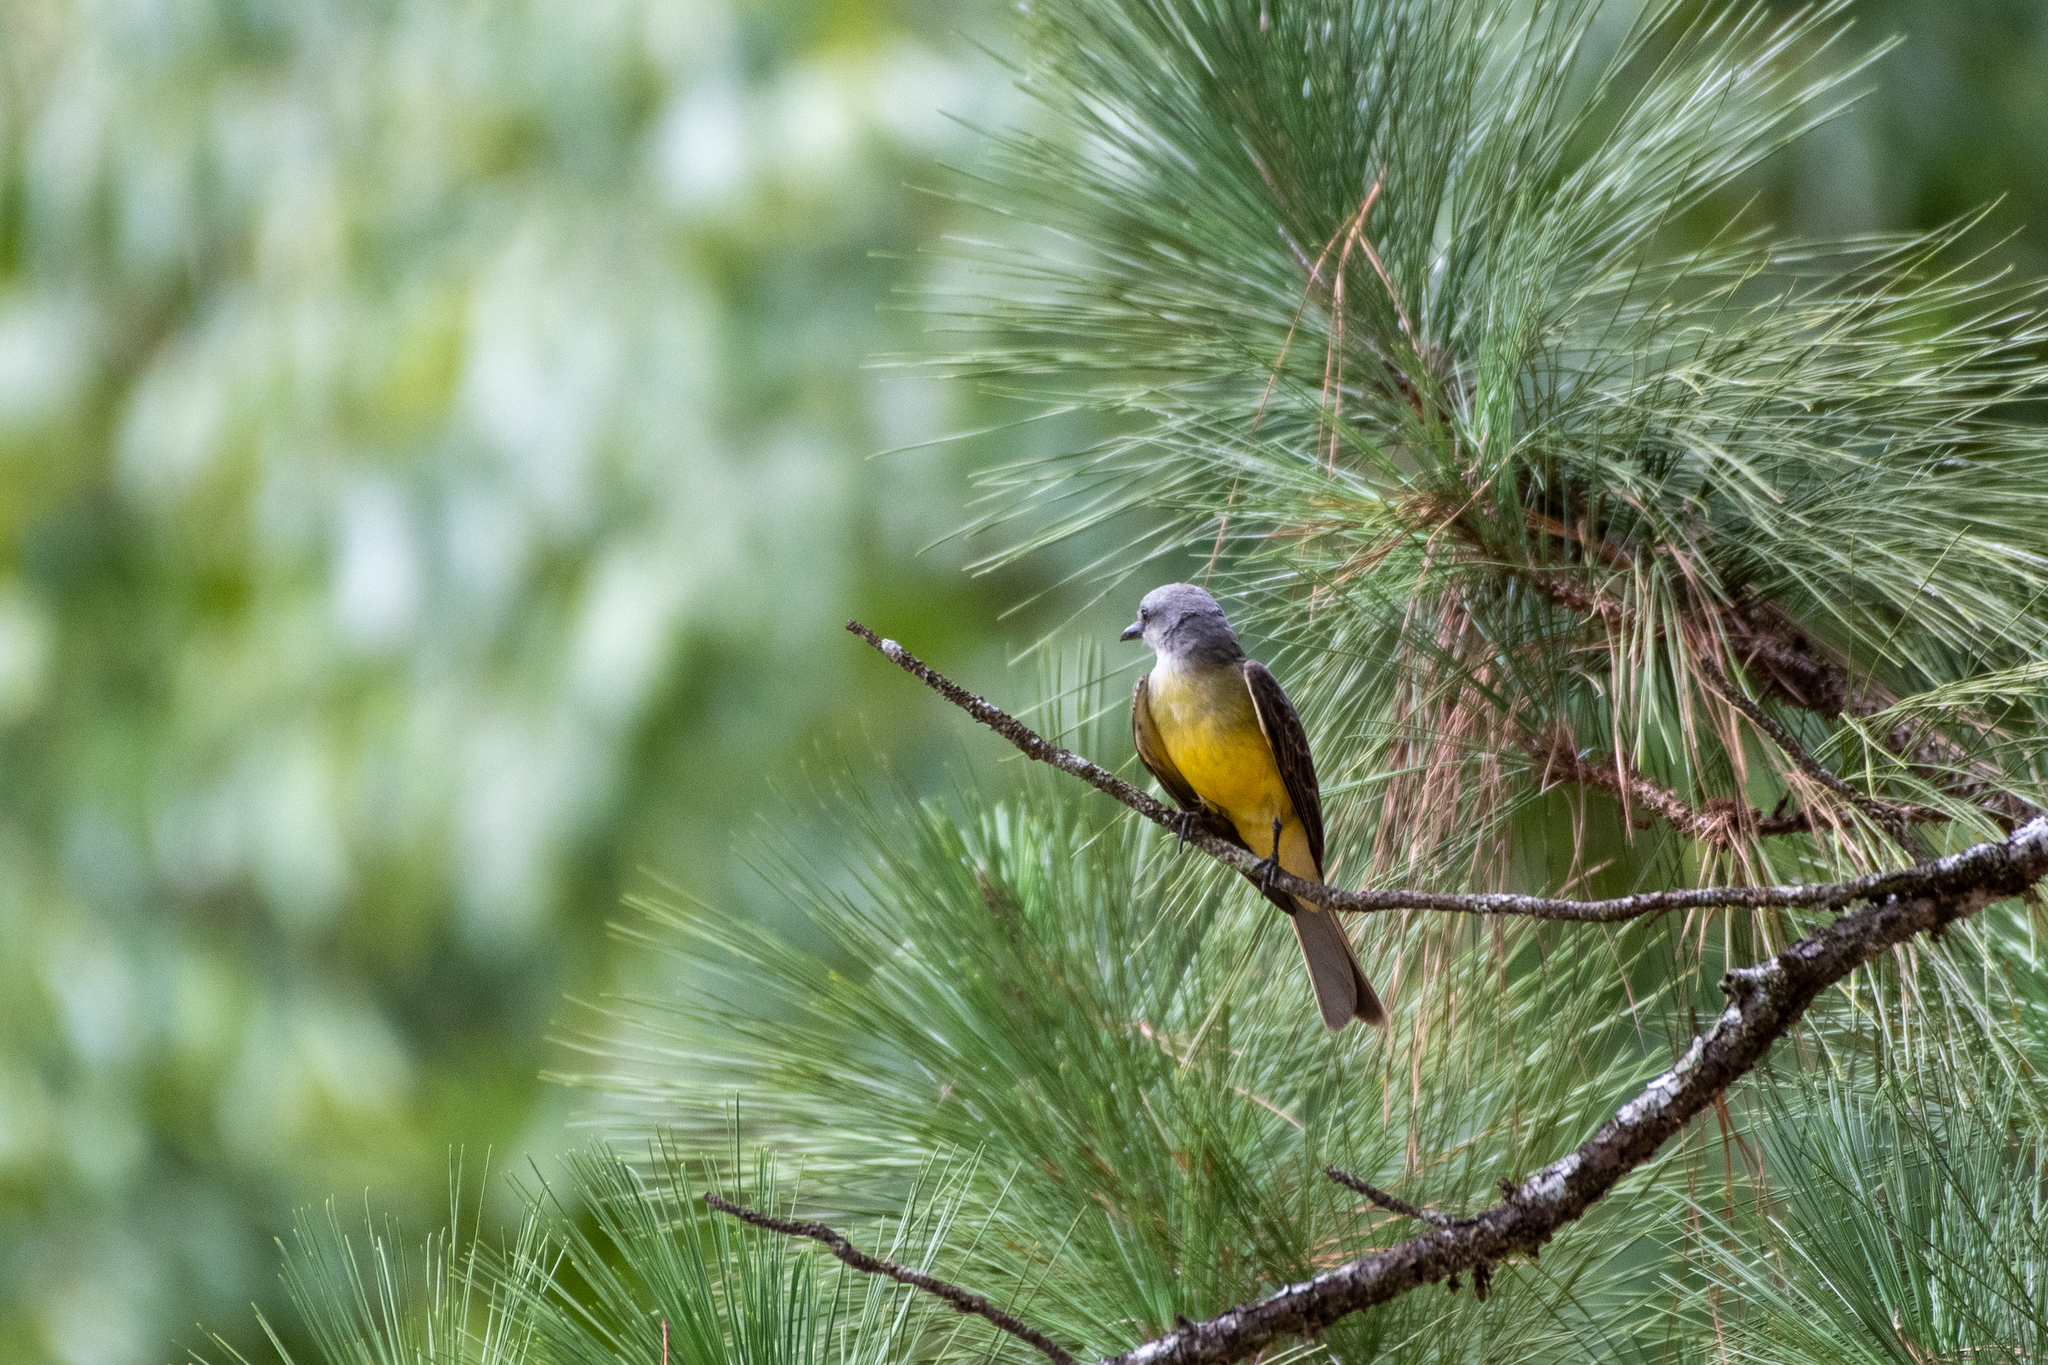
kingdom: Animalia
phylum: Chordata
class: Aves
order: Passeriformes
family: Tyrannidae
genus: Tyrannus
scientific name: Tyrannus melancholicus
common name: Tropical kingbird
